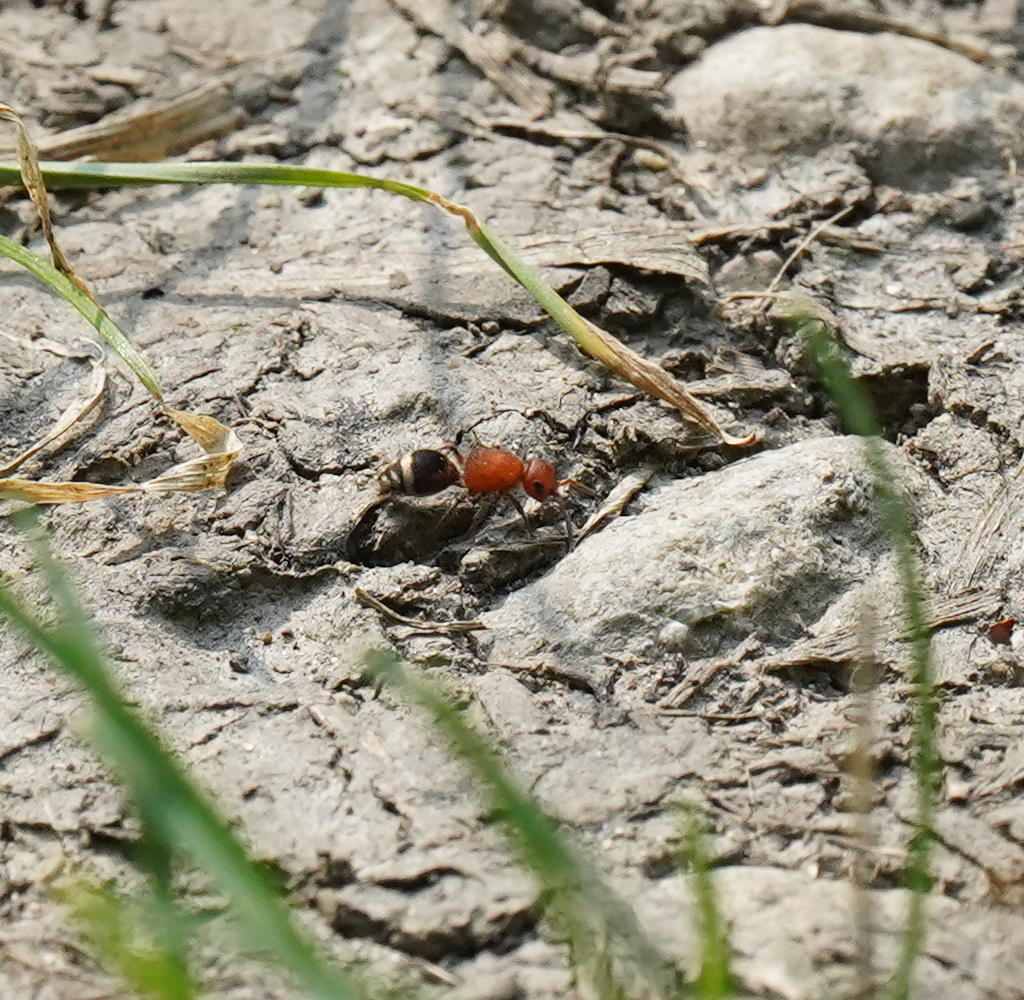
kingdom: Animalia
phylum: Arthropoda
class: Insecta
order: Hymenoptera
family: Mutillidae
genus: Timulla
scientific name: Timulla
